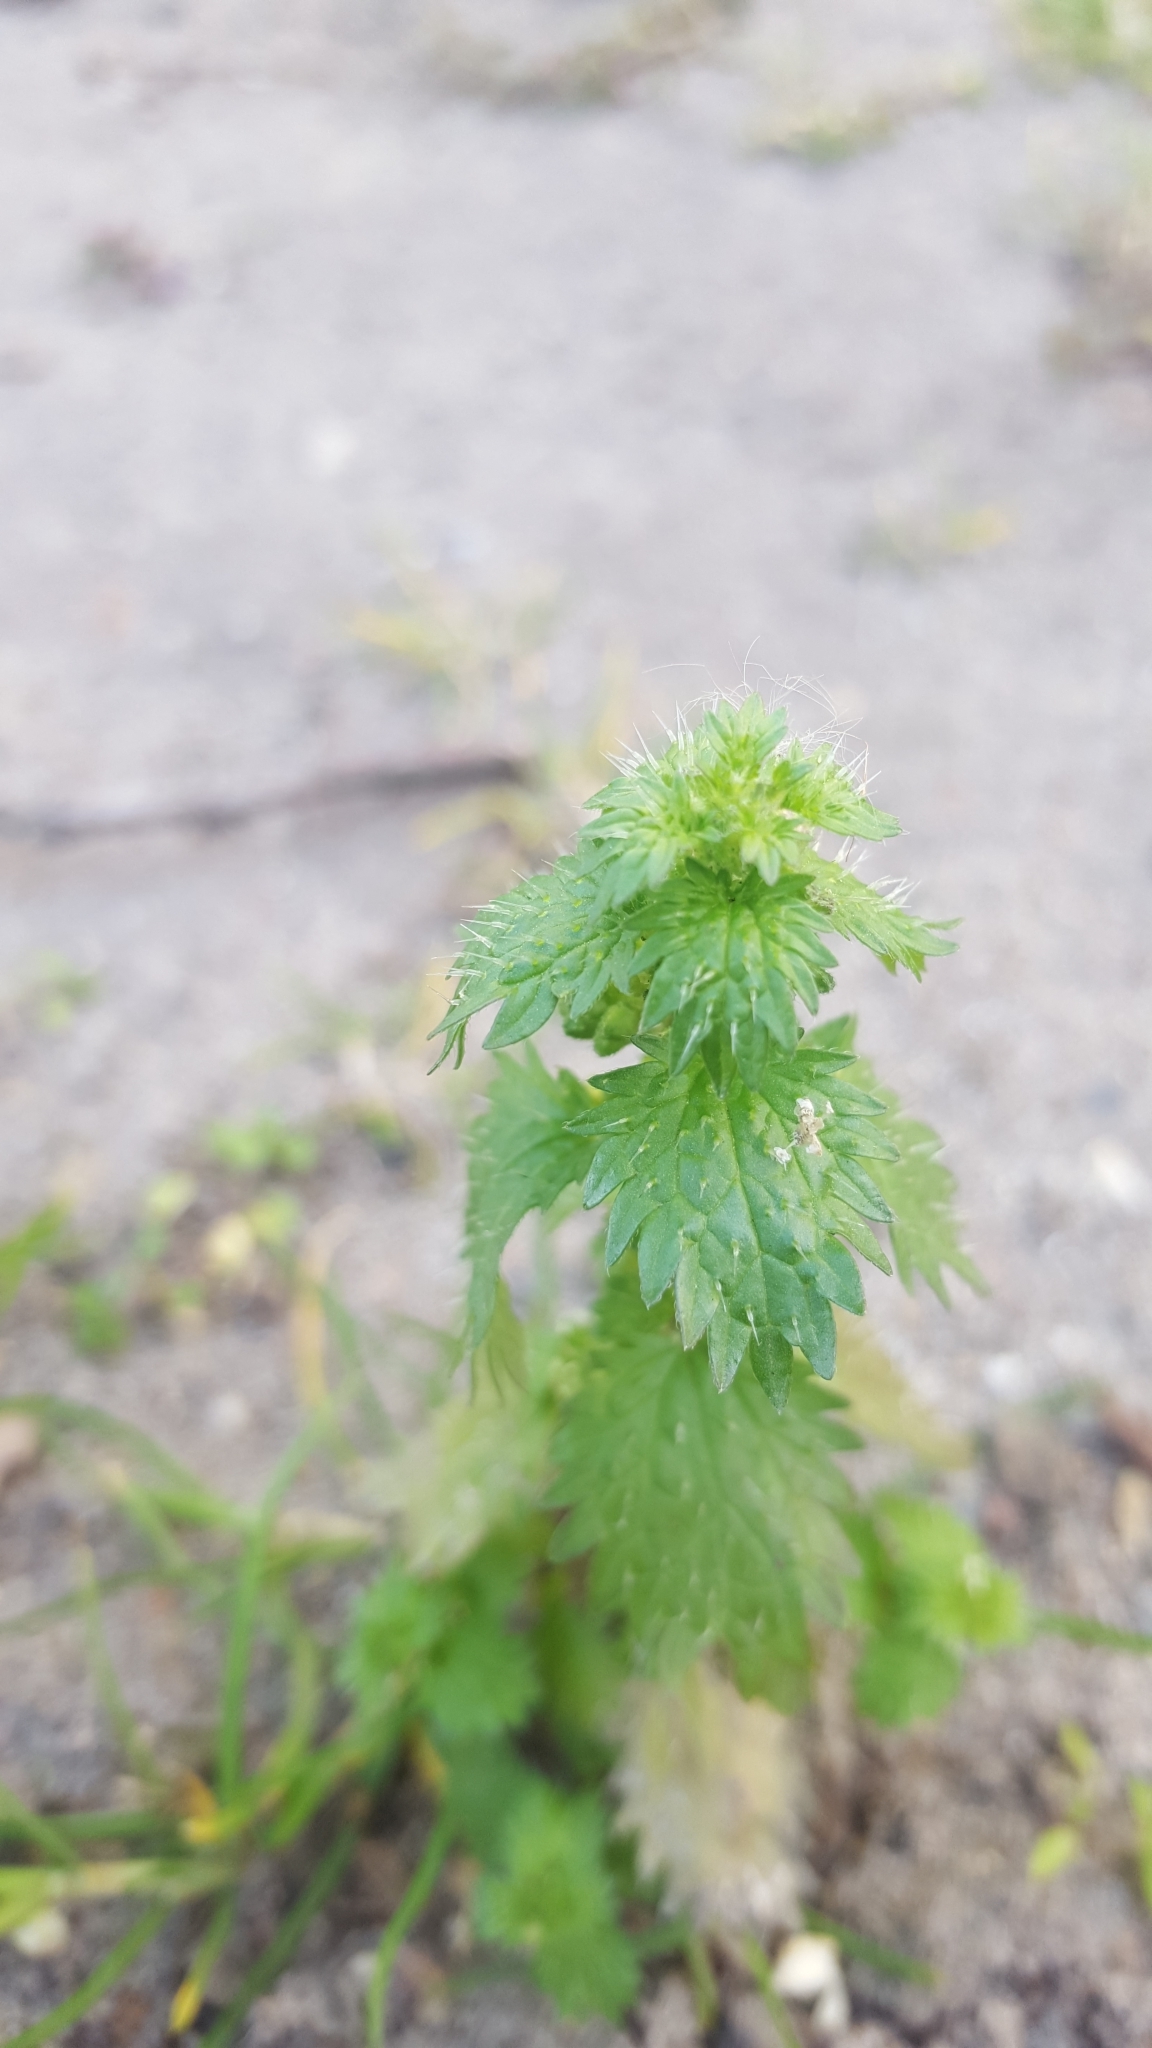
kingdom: Plantae
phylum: Tracheophyta
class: Magnoliopsida
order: Rosales
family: Urticaceae
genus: Urtica
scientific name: Urtica urens
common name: Dwarf nettle
